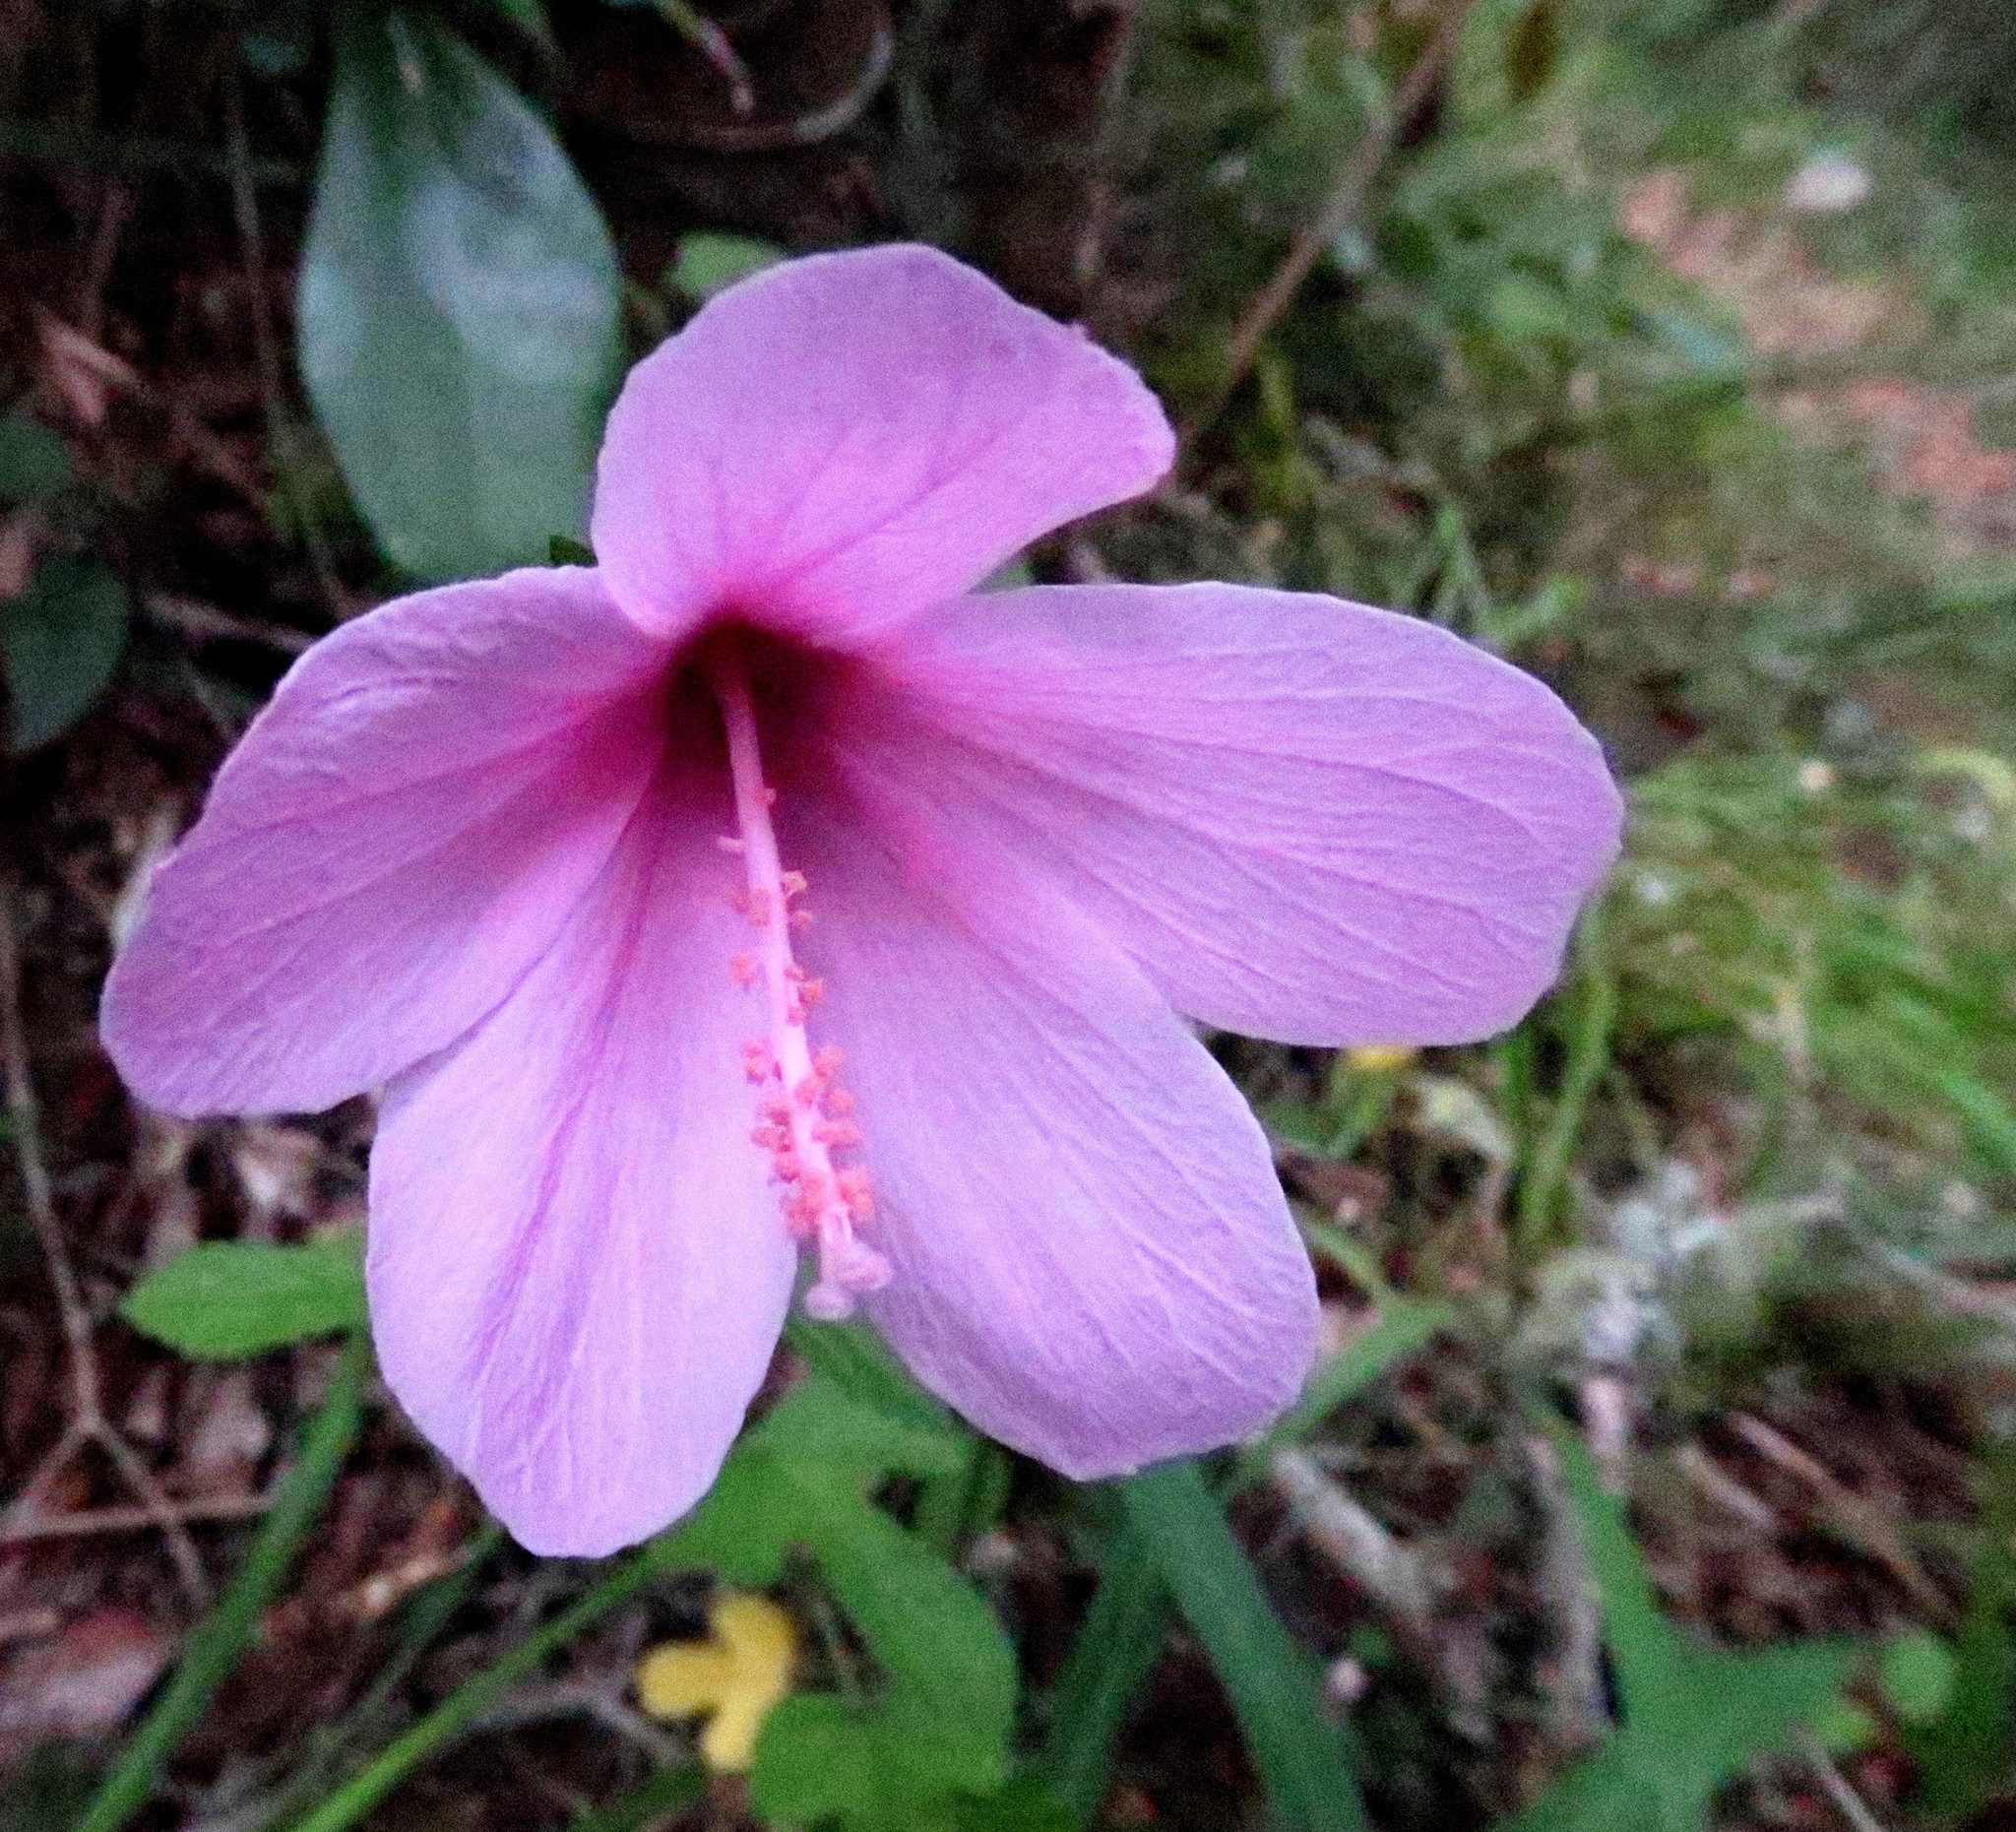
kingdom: Plantae
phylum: Tracheophyta
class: Magnoliopsida
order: Malvales
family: Malvaceae
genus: Hibiscus
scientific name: Hibiscus pedunculatus
